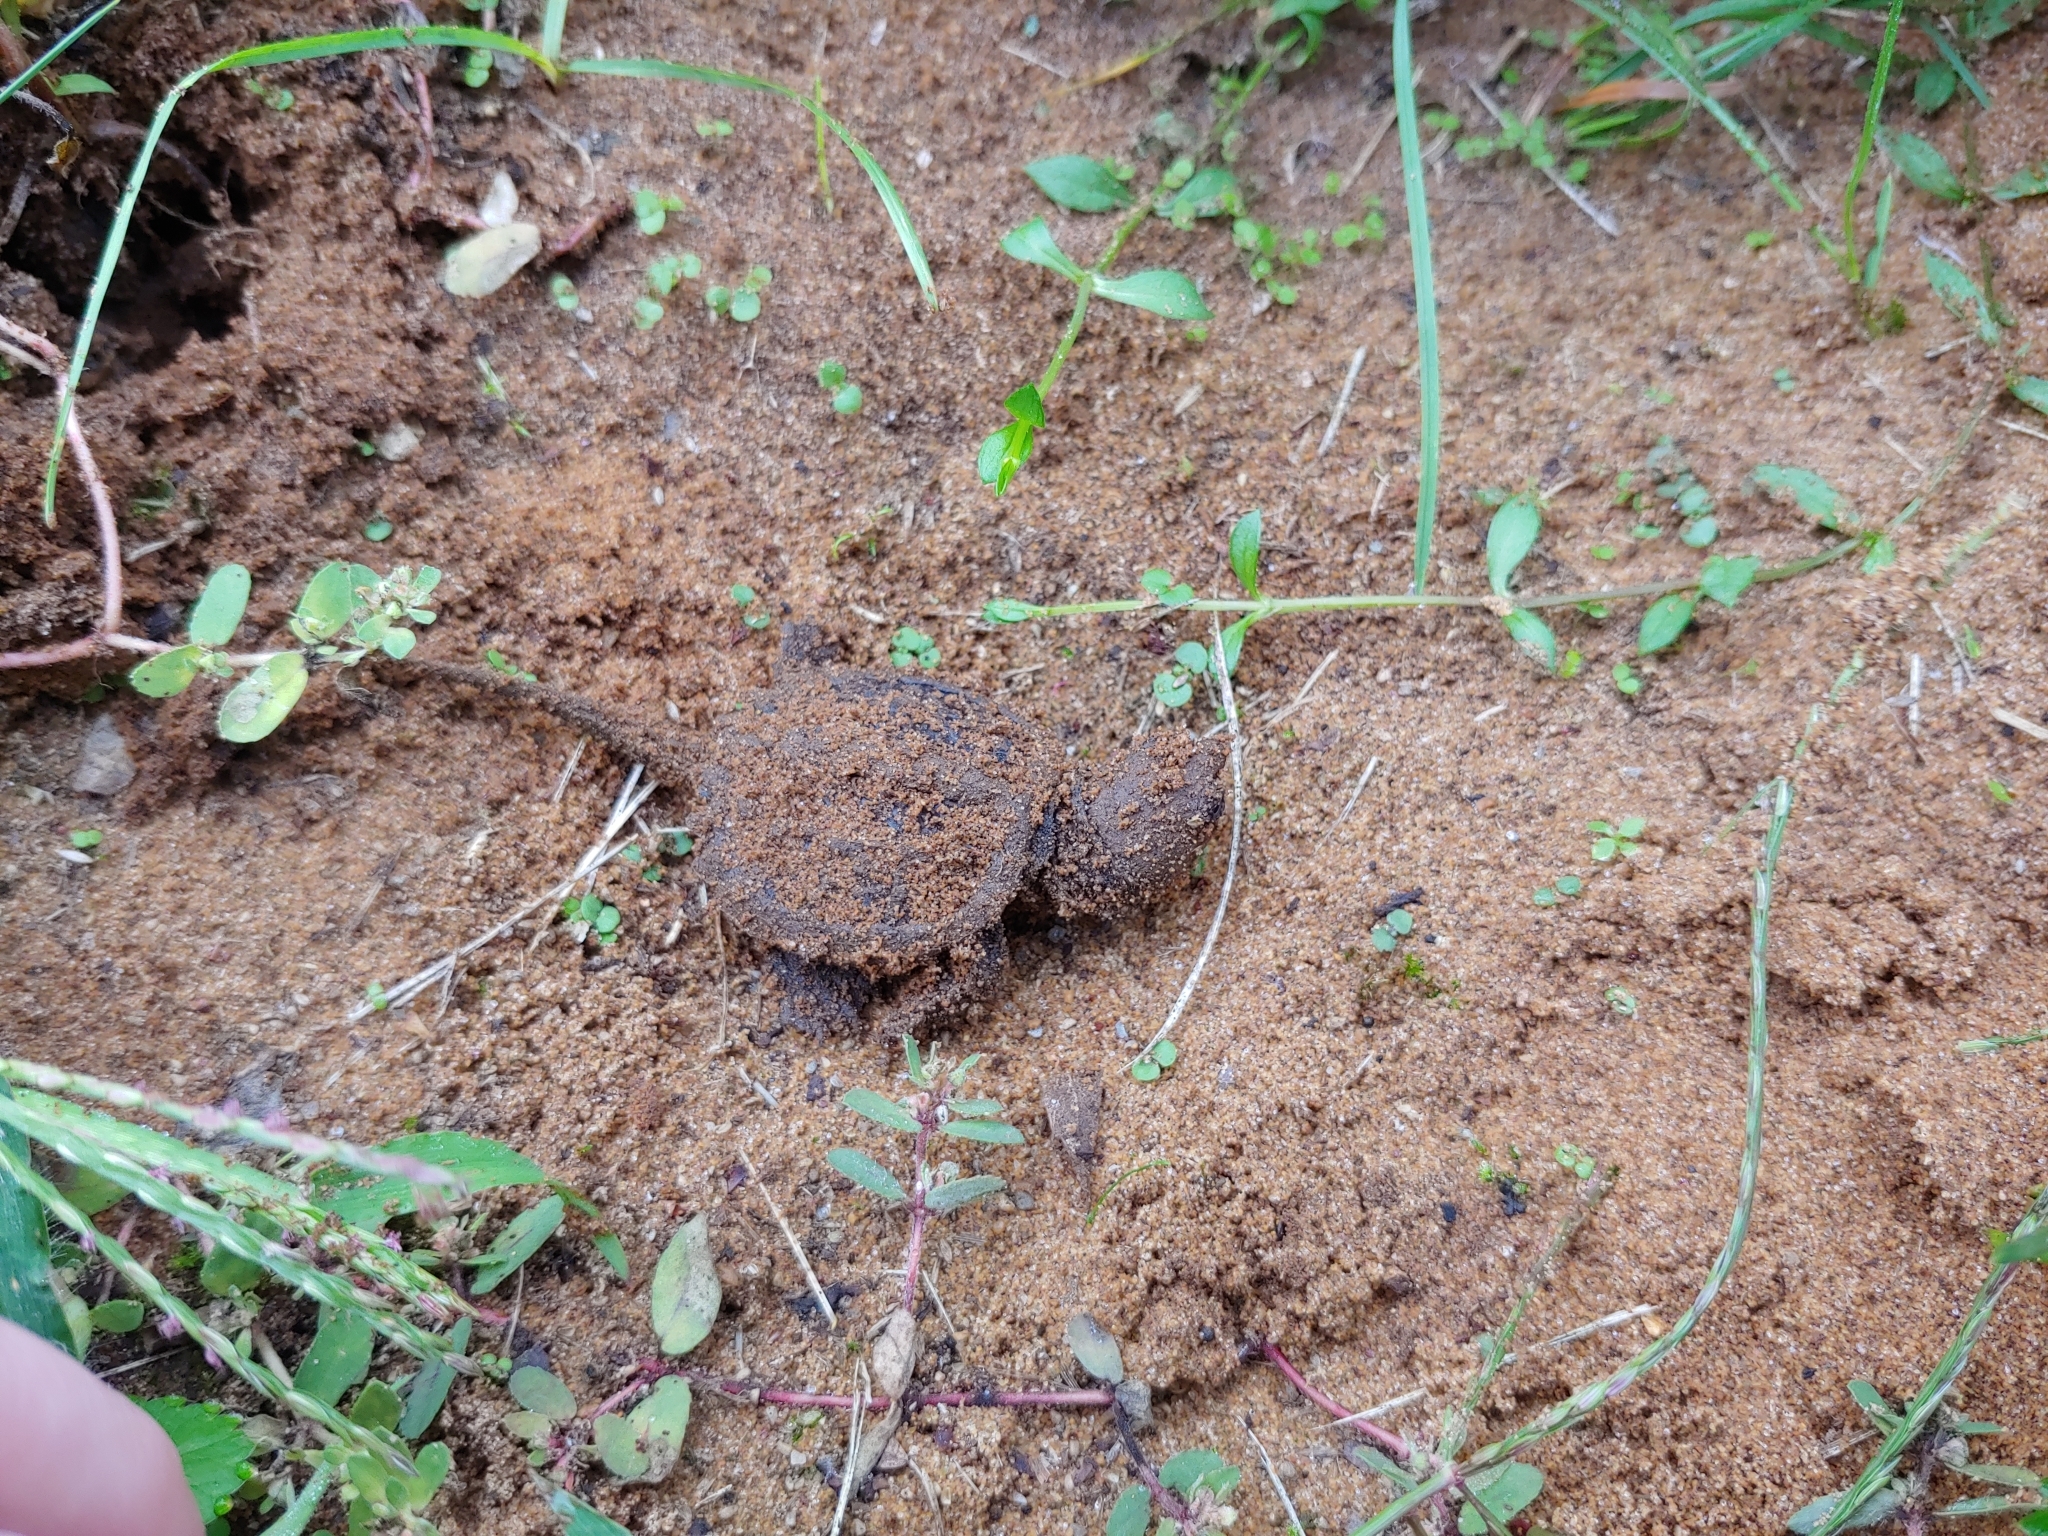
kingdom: Animalia
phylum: Chordata
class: Testudines
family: Chelydridae
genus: Chelydra
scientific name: Chelydra serpentina
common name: Common snapping turtle
